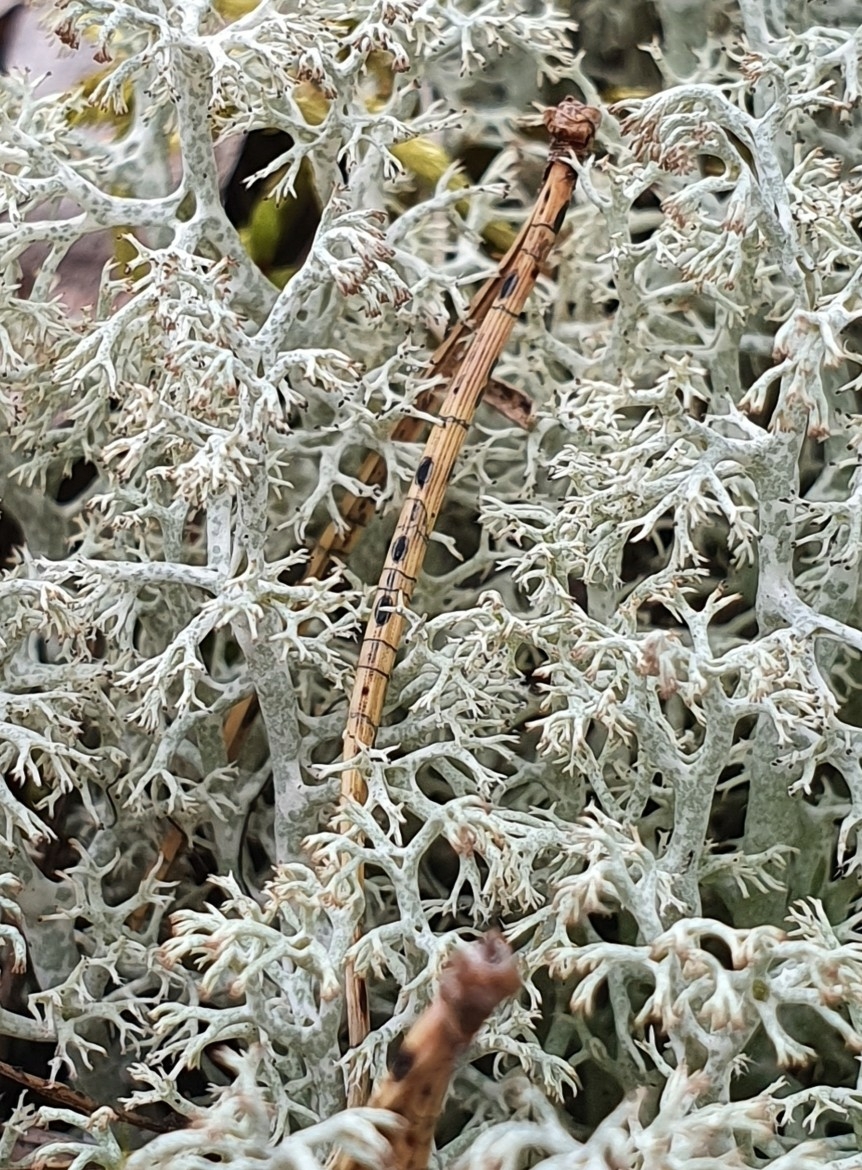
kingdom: Fungi
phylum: Ascomycota
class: Leotiomycetes
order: Rhytismatales
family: Rhytismataceae
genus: Lophodermium
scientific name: Lophodermium pinastri
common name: Pine needle split
